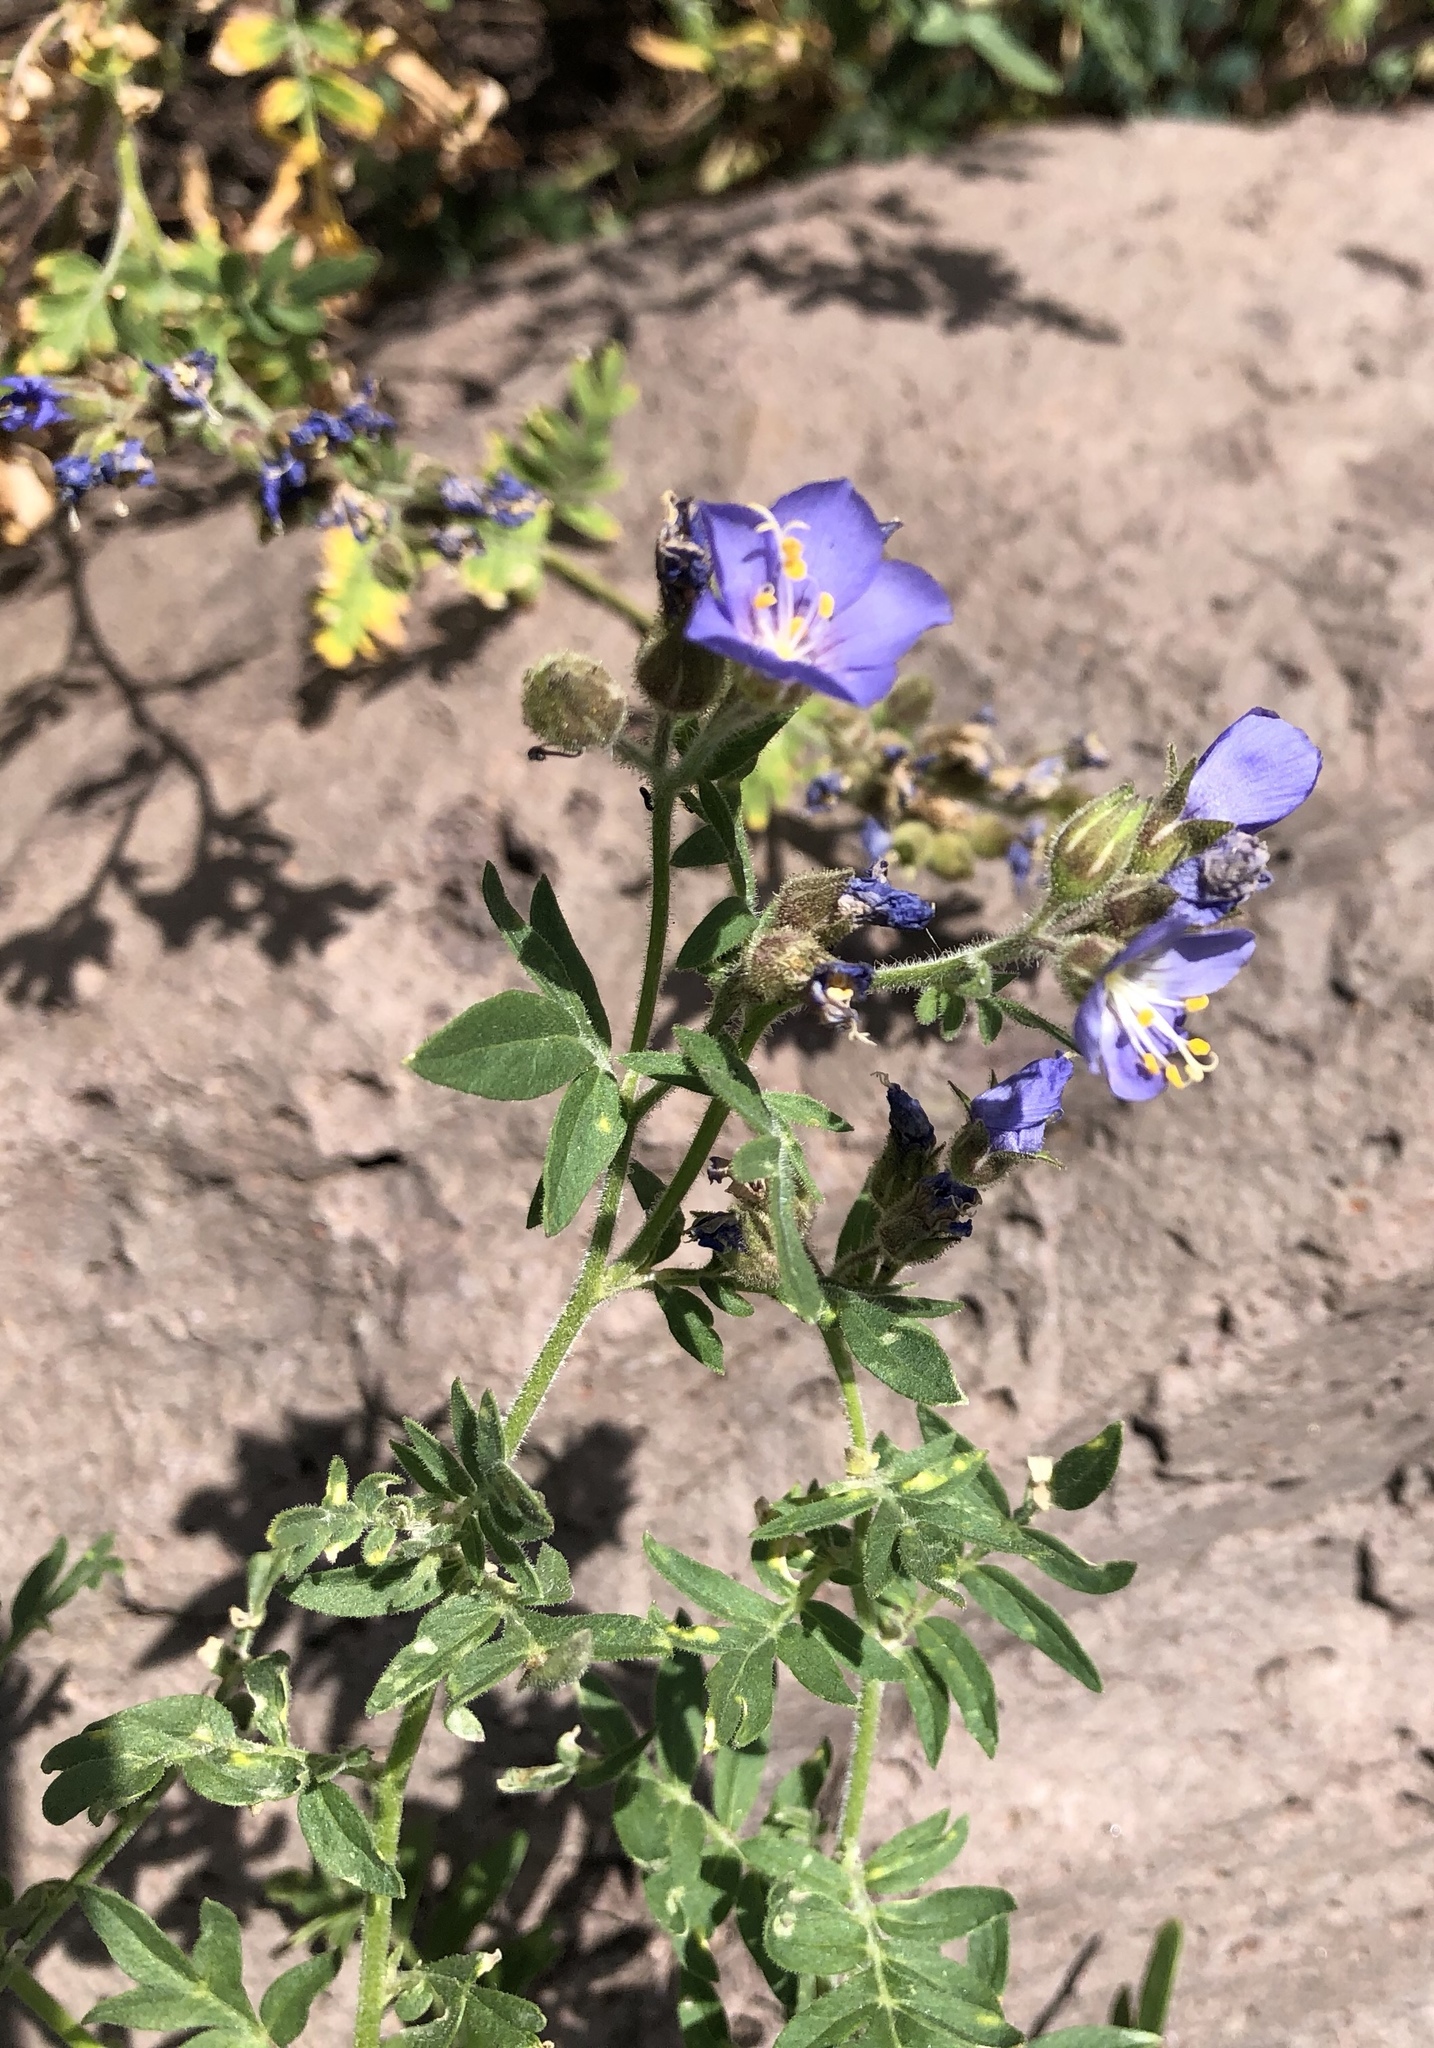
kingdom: Plantae
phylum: Tracheophyta
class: Magnoliopsida
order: Ericales
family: Polemoniaceae
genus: Polemonium
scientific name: Polemonium foliosissimum
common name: Leafy jacob's-ladder
